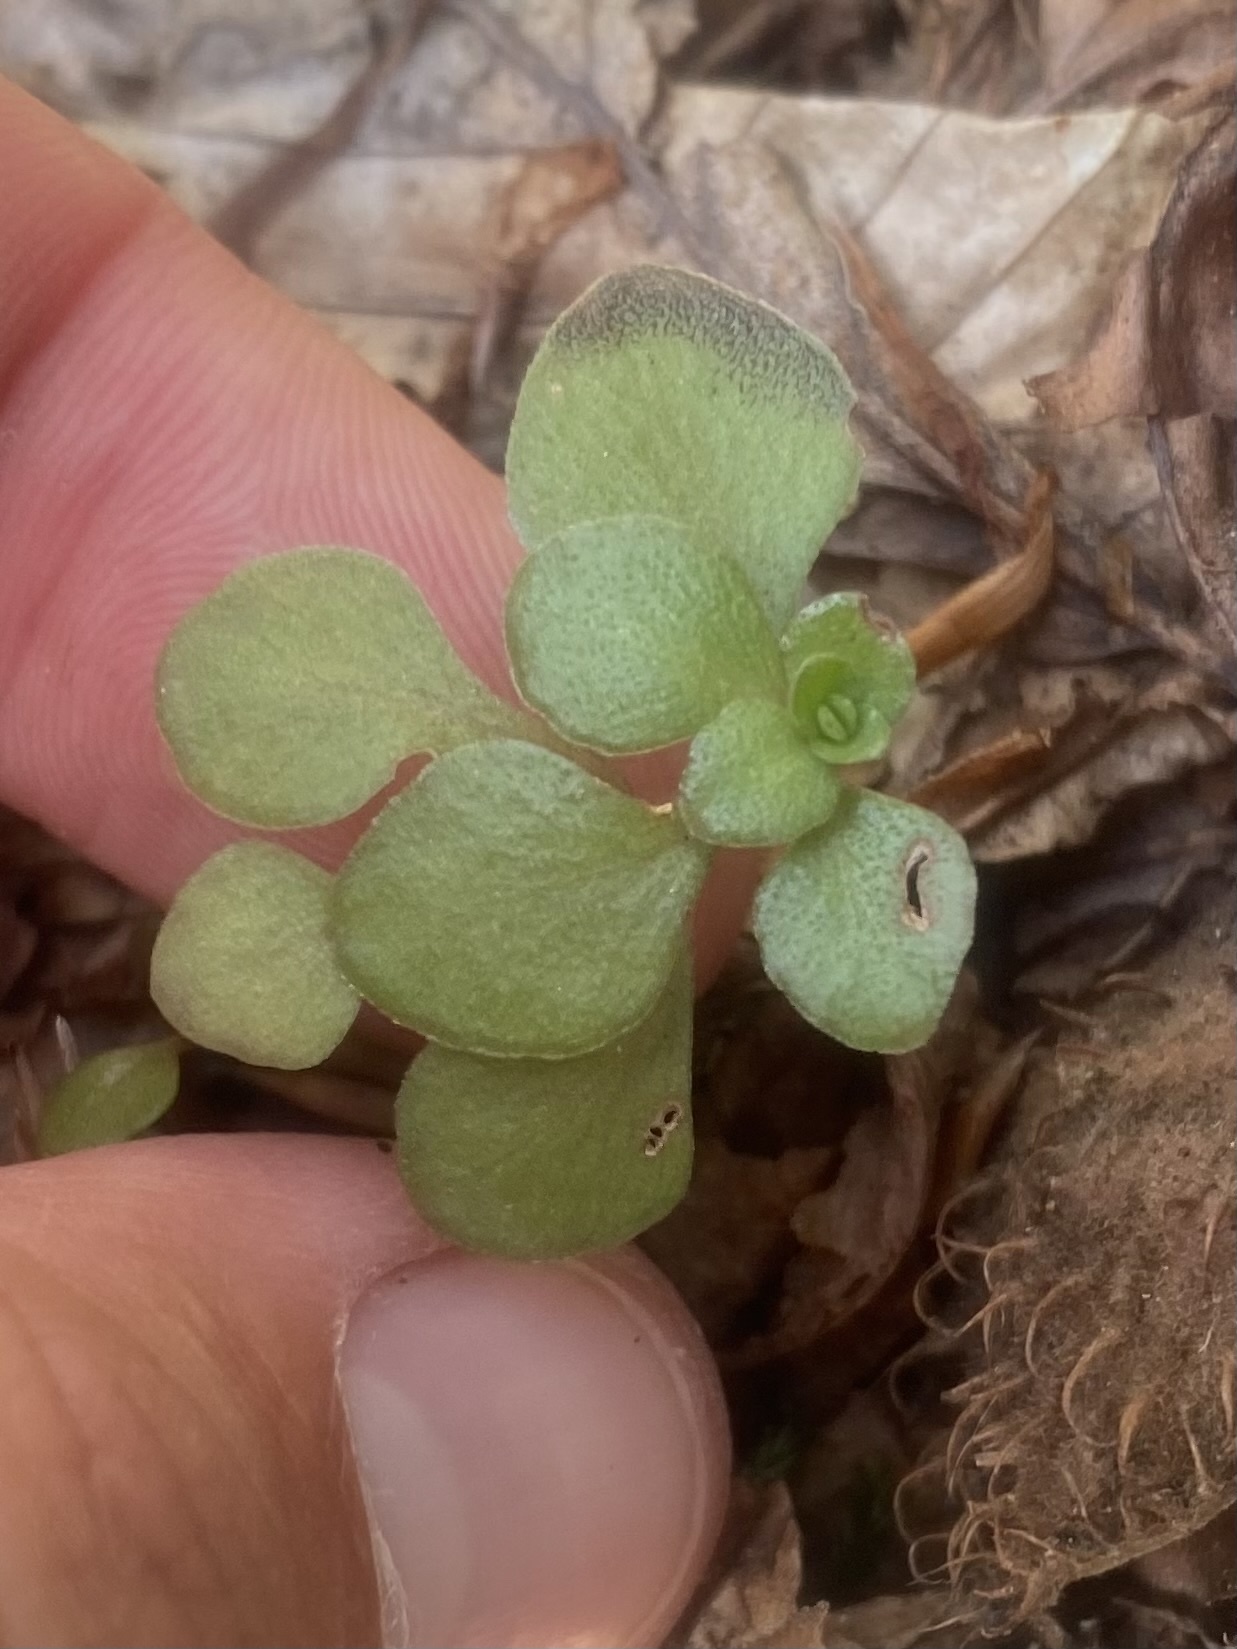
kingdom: Plantae
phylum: Tracheophyta
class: Magnoliopsida
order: Saxifragales
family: Crassulaceae
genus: Phedimus
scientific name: Phedimus stolonifer
